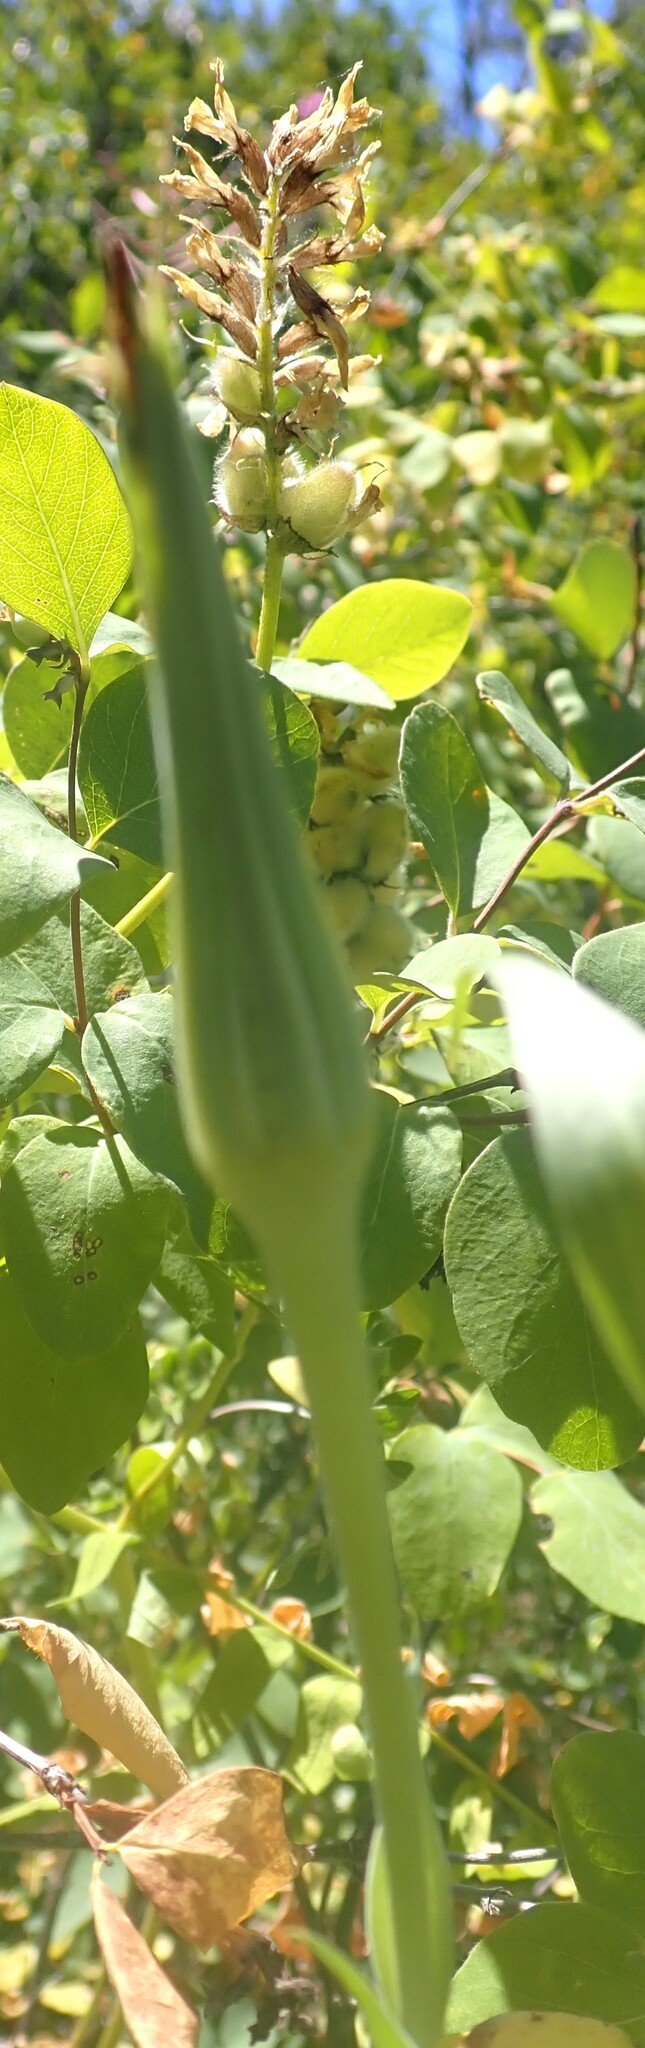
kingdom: Plantae
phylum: Tracheophyta
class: Magnoliopsida
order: Asterales
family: Asteraceae
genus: Tragopogon
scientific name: Tragopogon dubius
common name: Yellow salsify
